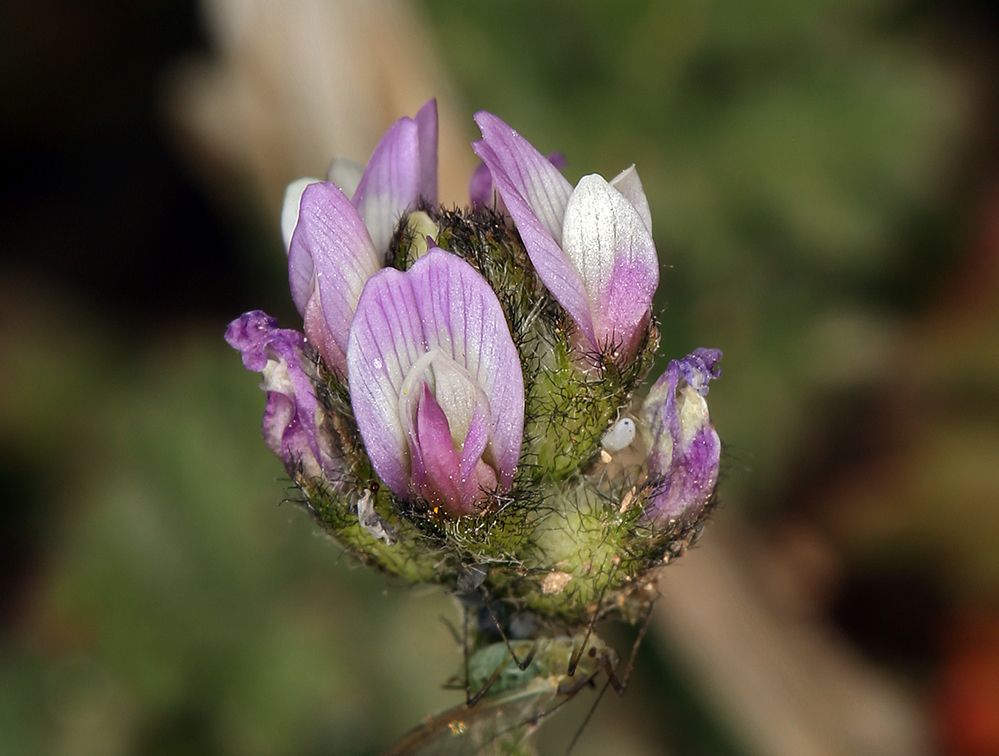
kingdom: Plantae
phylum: Tracheophyta
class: Magnoliopsida
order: Fabales
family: Fabaceae
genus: Astragalus
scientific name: Astragalus didymocarpus
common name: Dwarf white milkvetch
